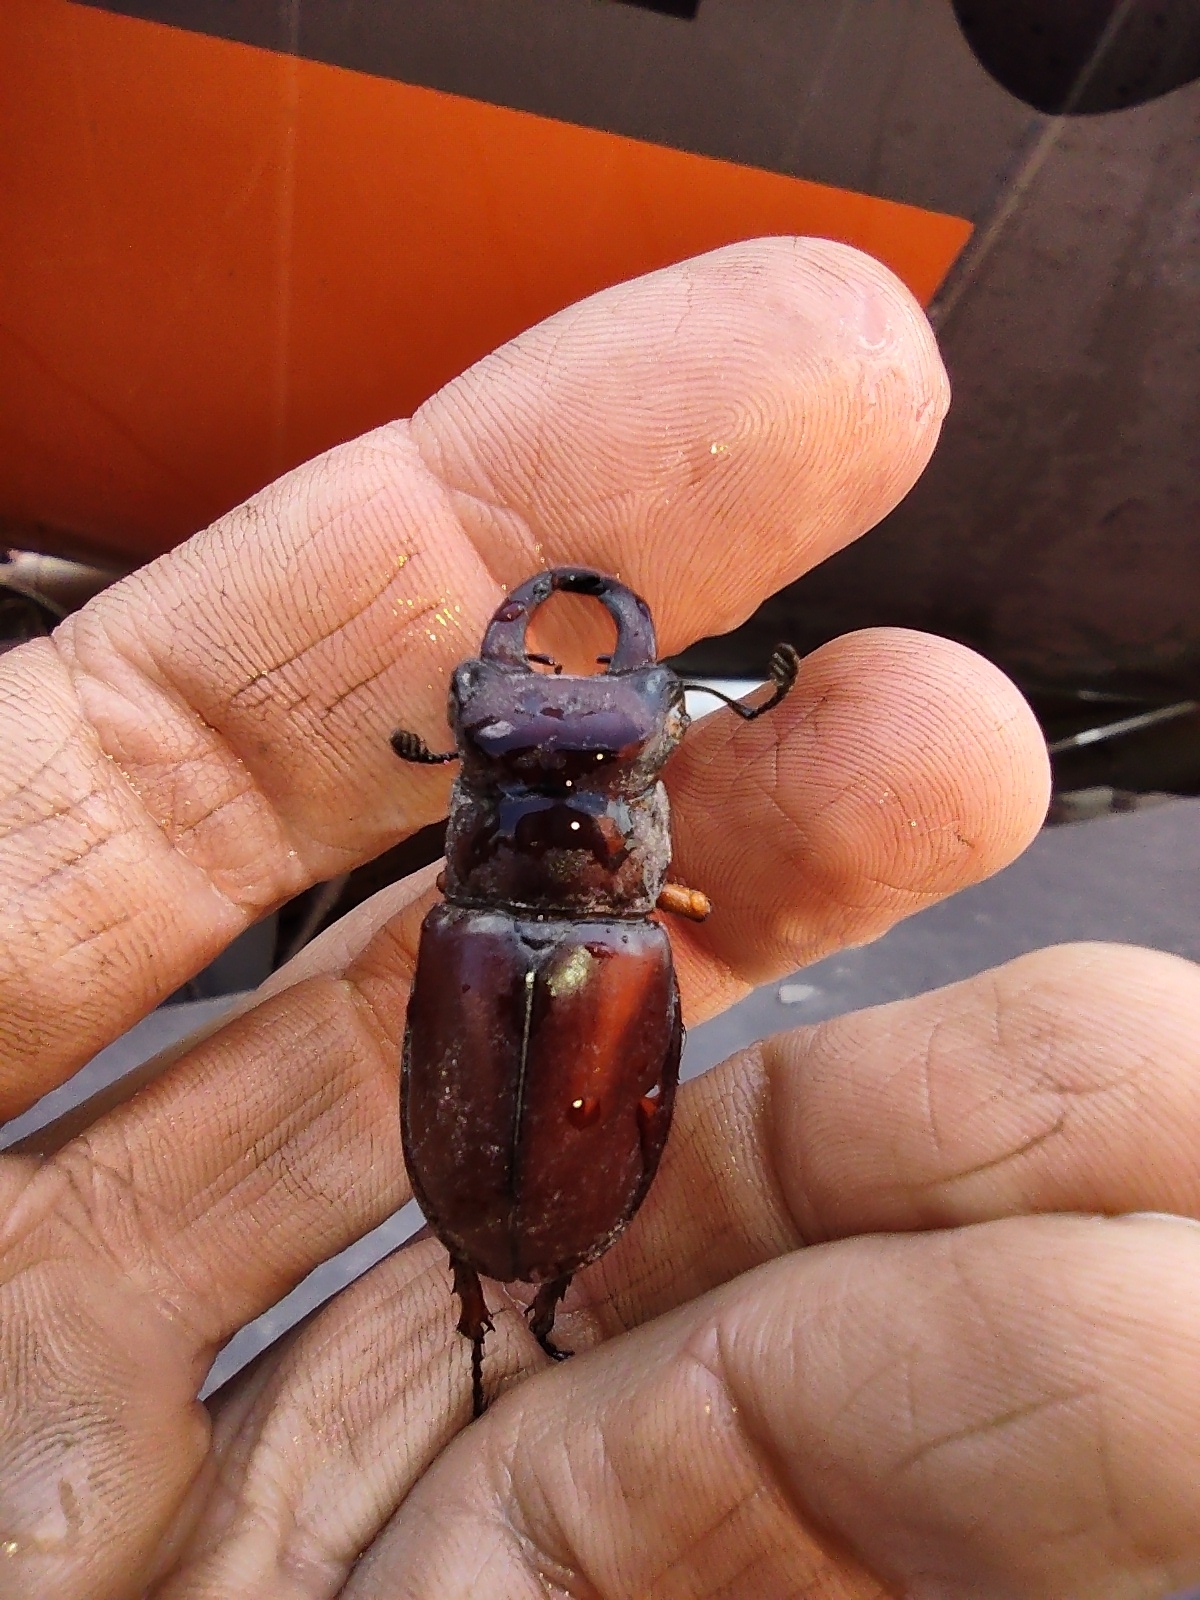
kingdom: Animalia
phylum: Arthropoda
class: Insecta
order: Coleoptera
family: Lucanidae
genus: Lucanus
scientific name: Lucanus capreolus
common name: Stag beetle
